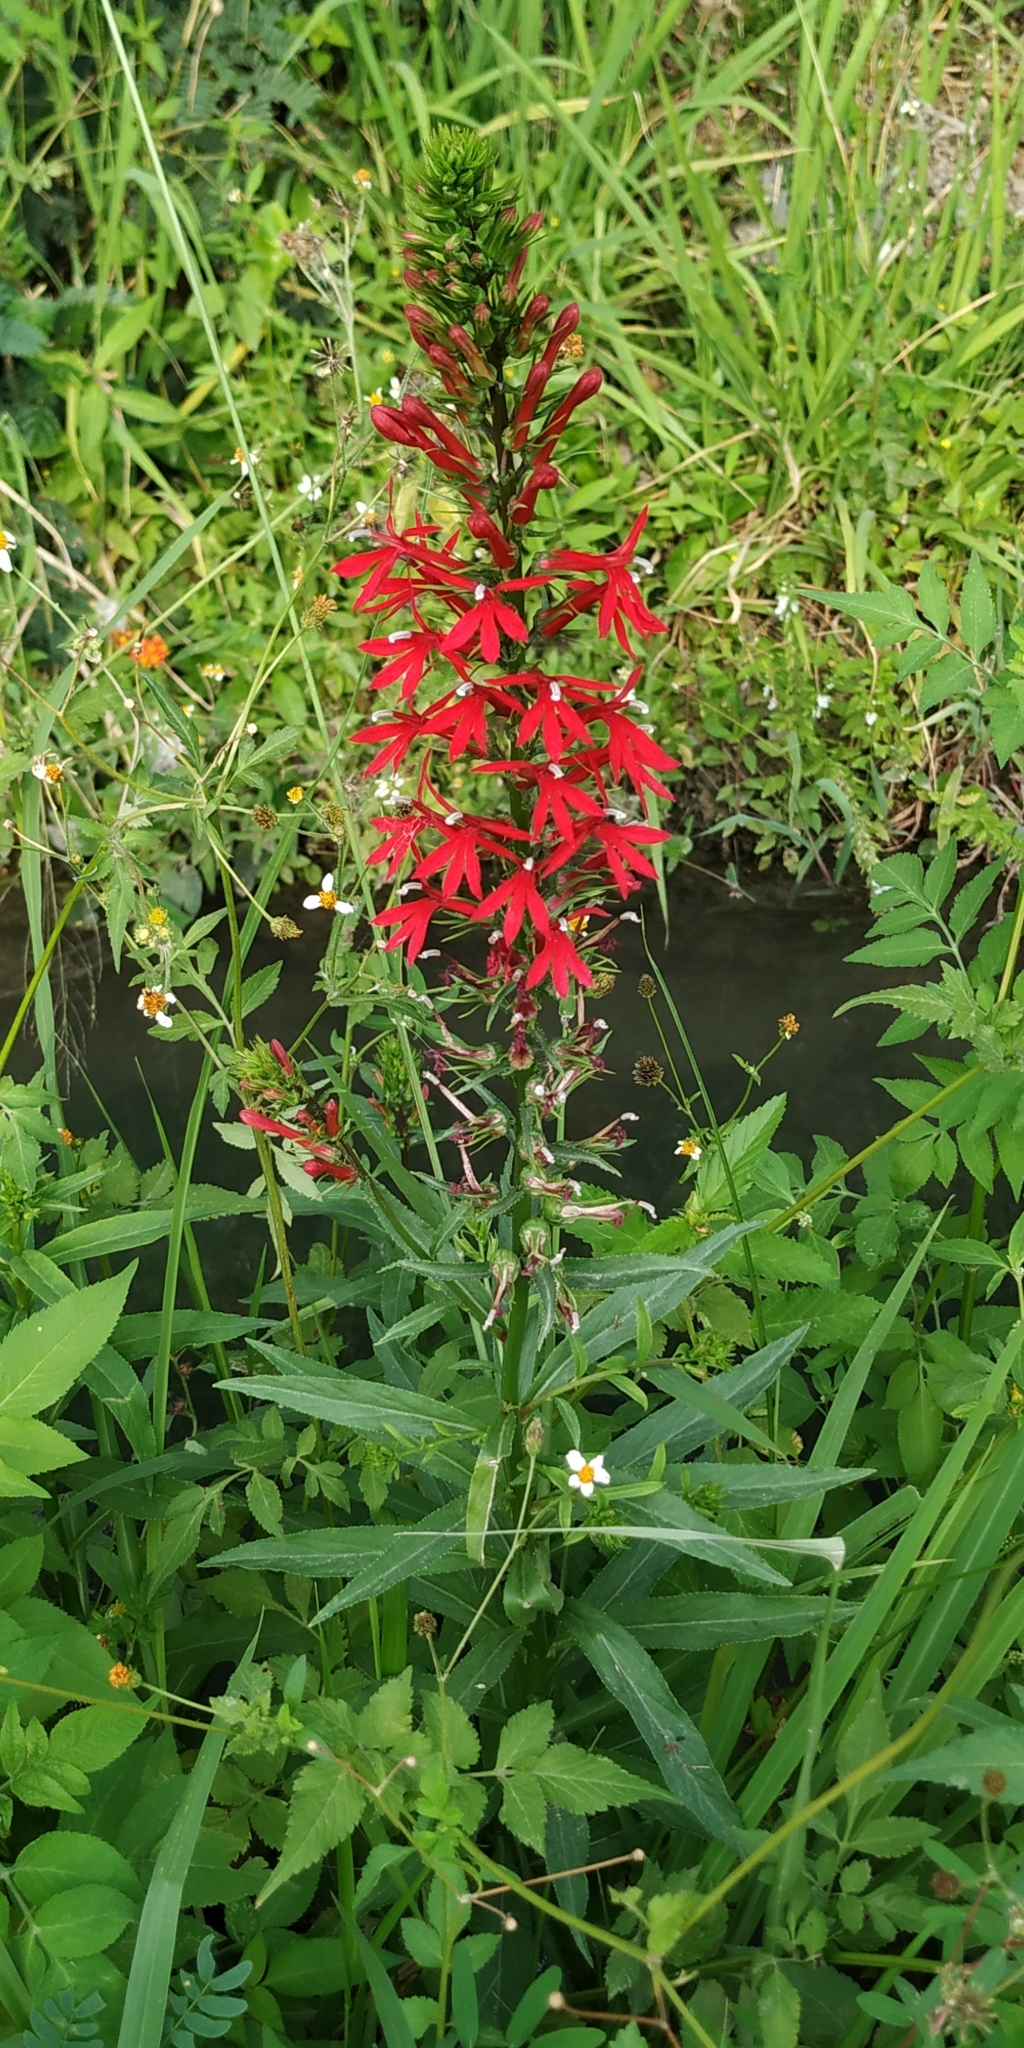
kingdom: Plantae
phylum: Tracheophyta
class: Magnoliopsida
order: Asterales
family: Campanulaceae
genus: Lobelia
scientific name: Lobelia cardinalis
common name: Cardinal flower
